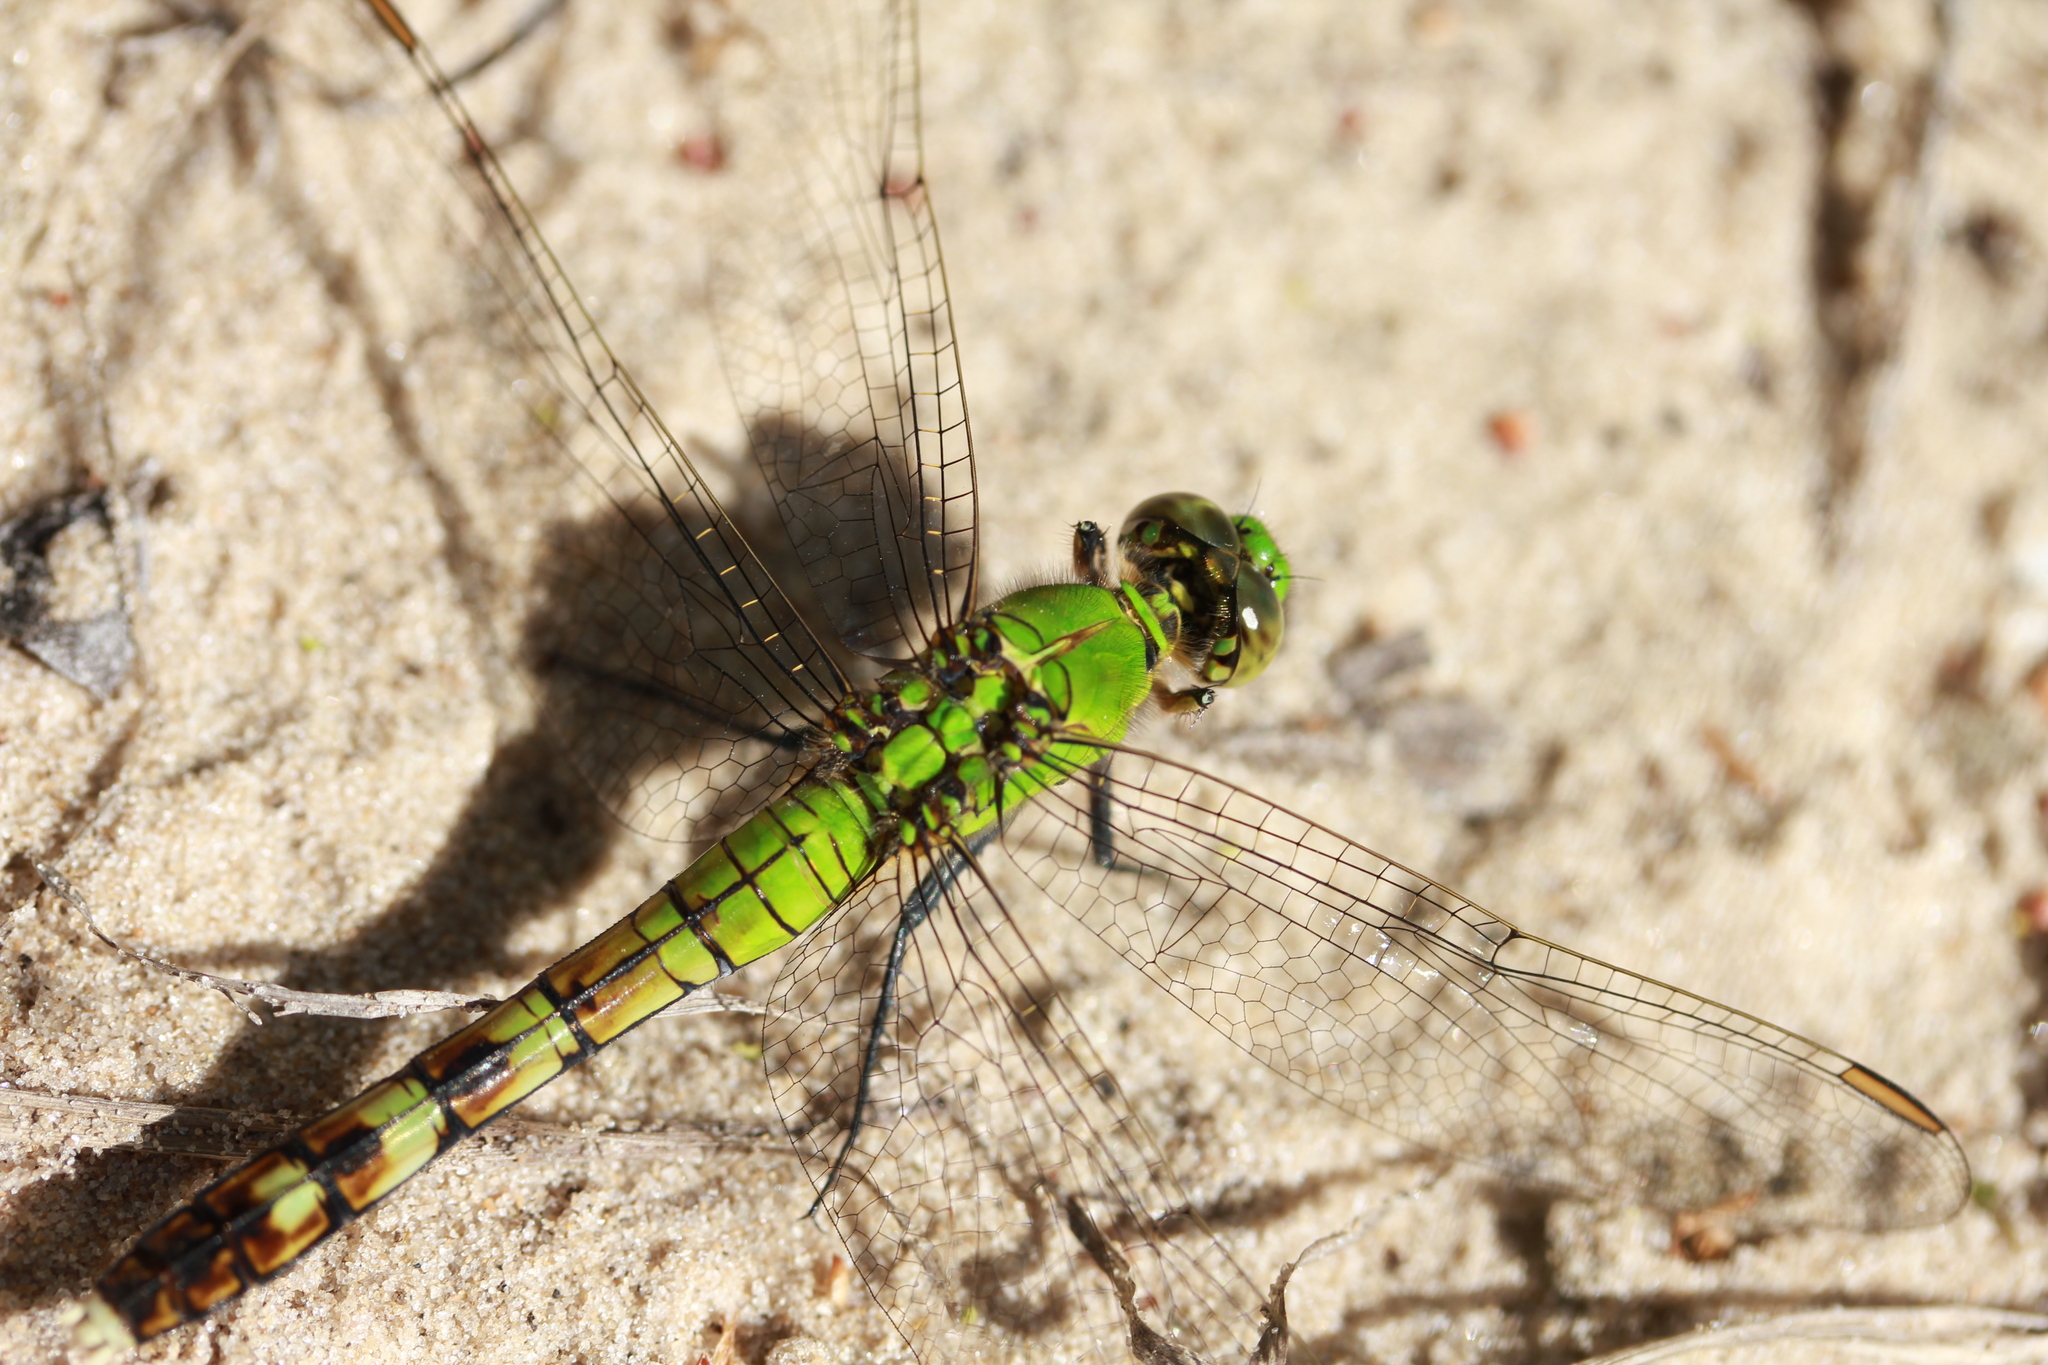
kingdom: Animalia
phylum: Arthropoda
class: Insecta
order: Odonata
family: Libellulidae
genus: Erythemis
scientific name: Erythemis simplicicollis
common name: Eastern pondhawk
